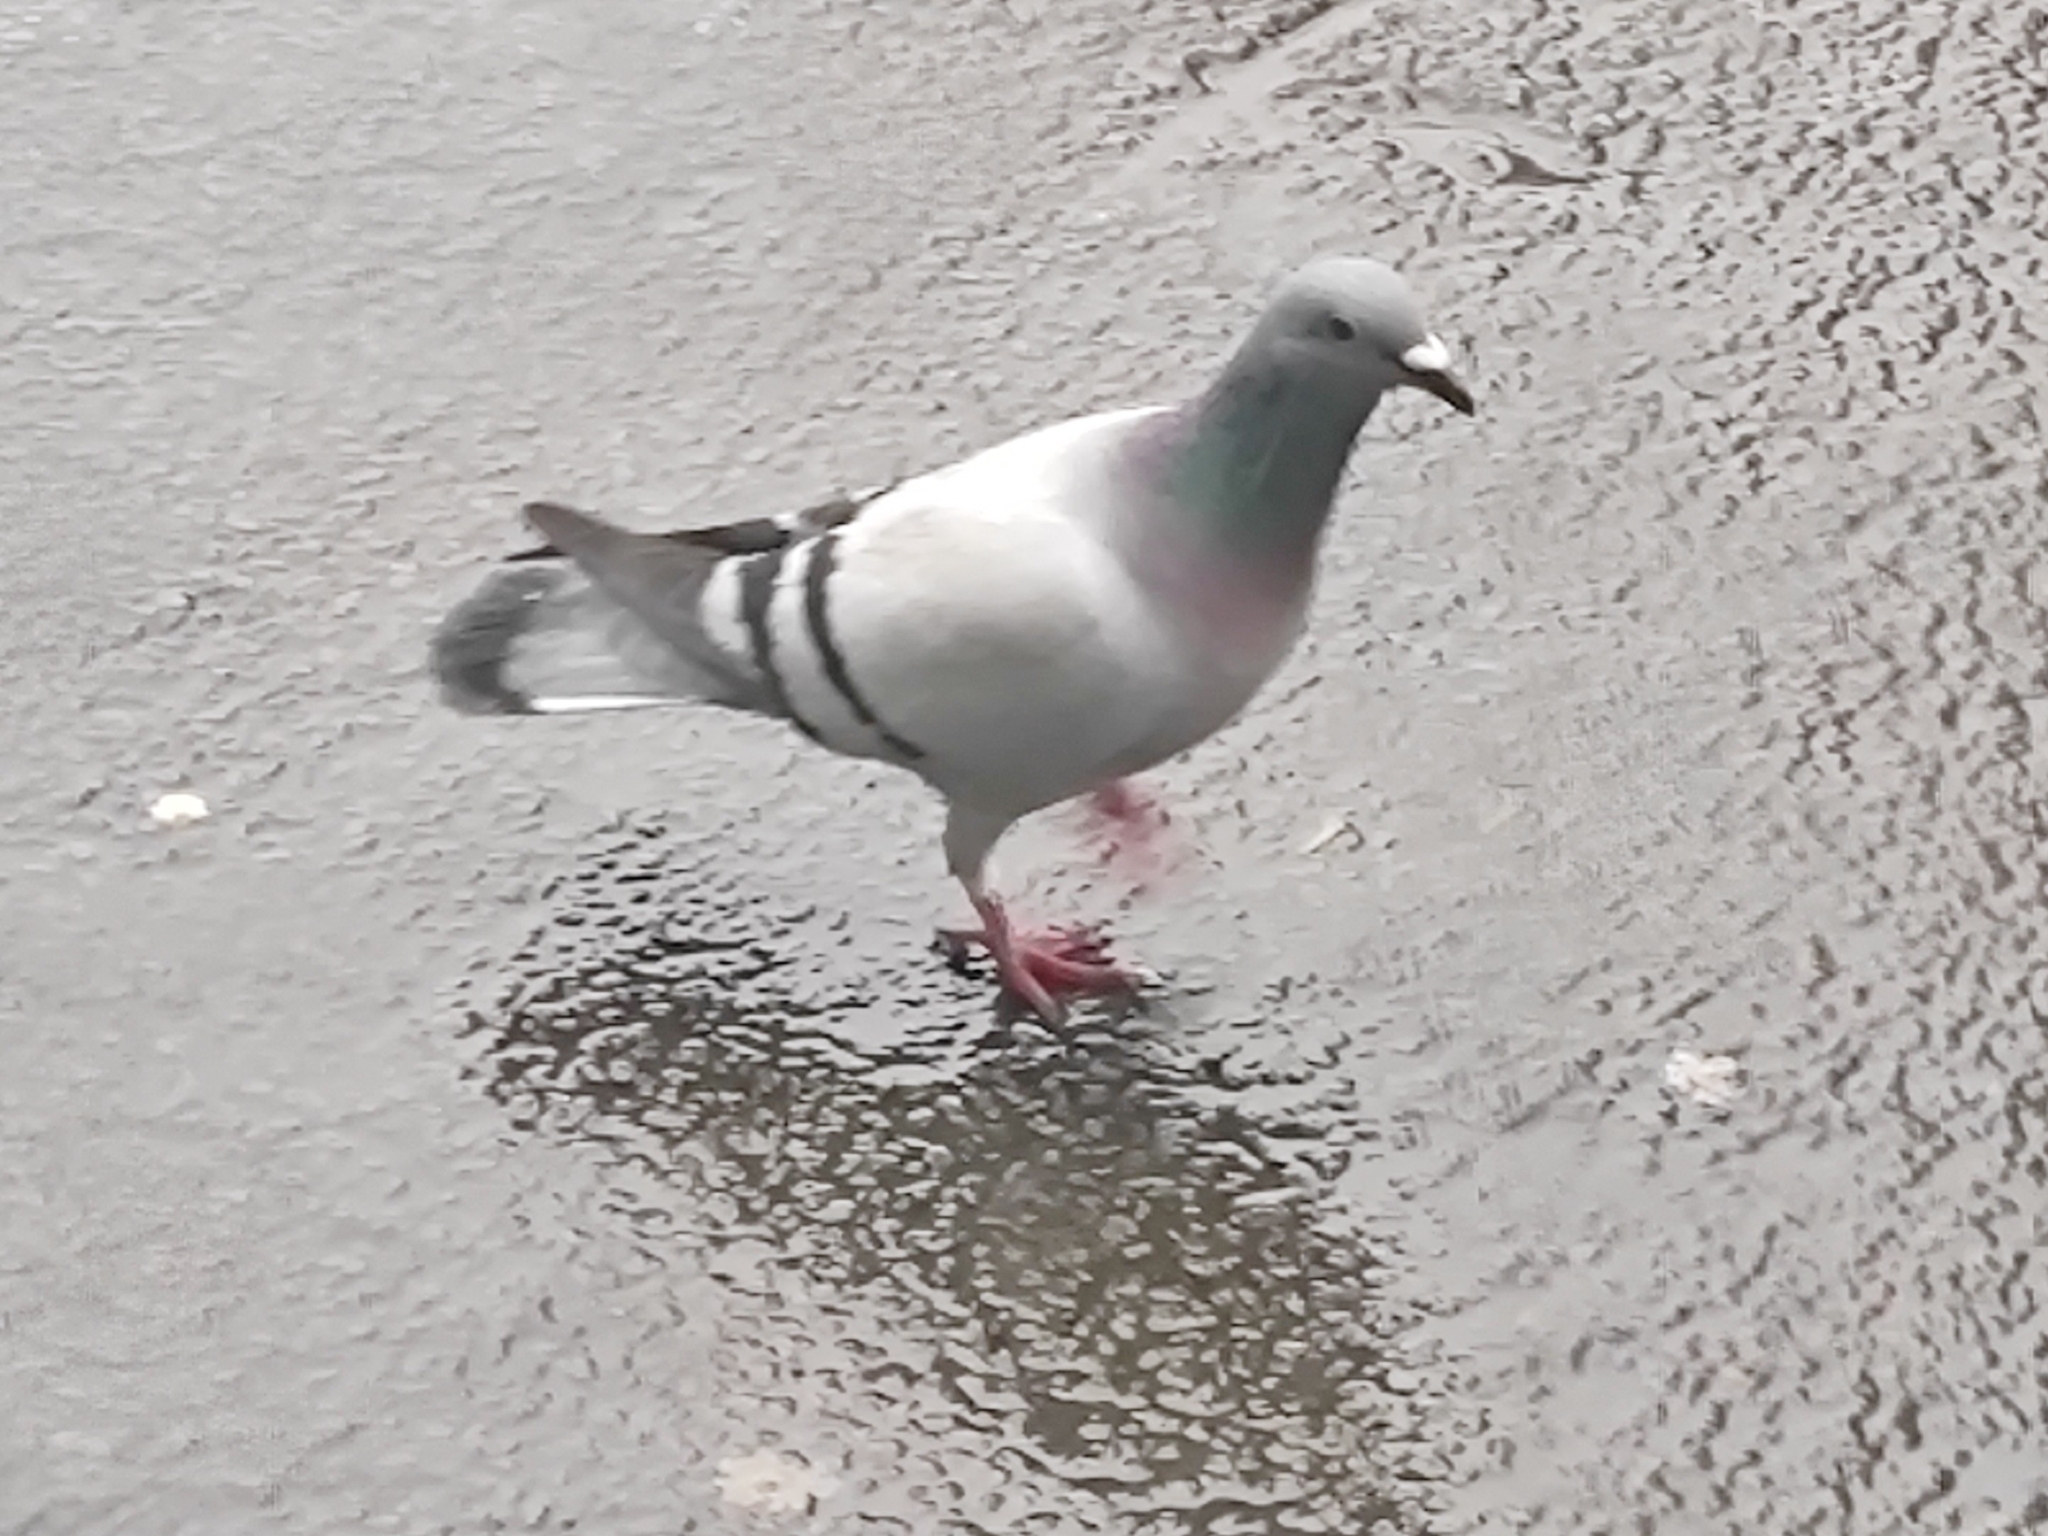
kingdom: Animalia
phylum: Chordata
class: Aves
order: Columbiformes
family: Columbidae
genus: Columba
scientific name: Columba livia
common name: Rock pigeon
